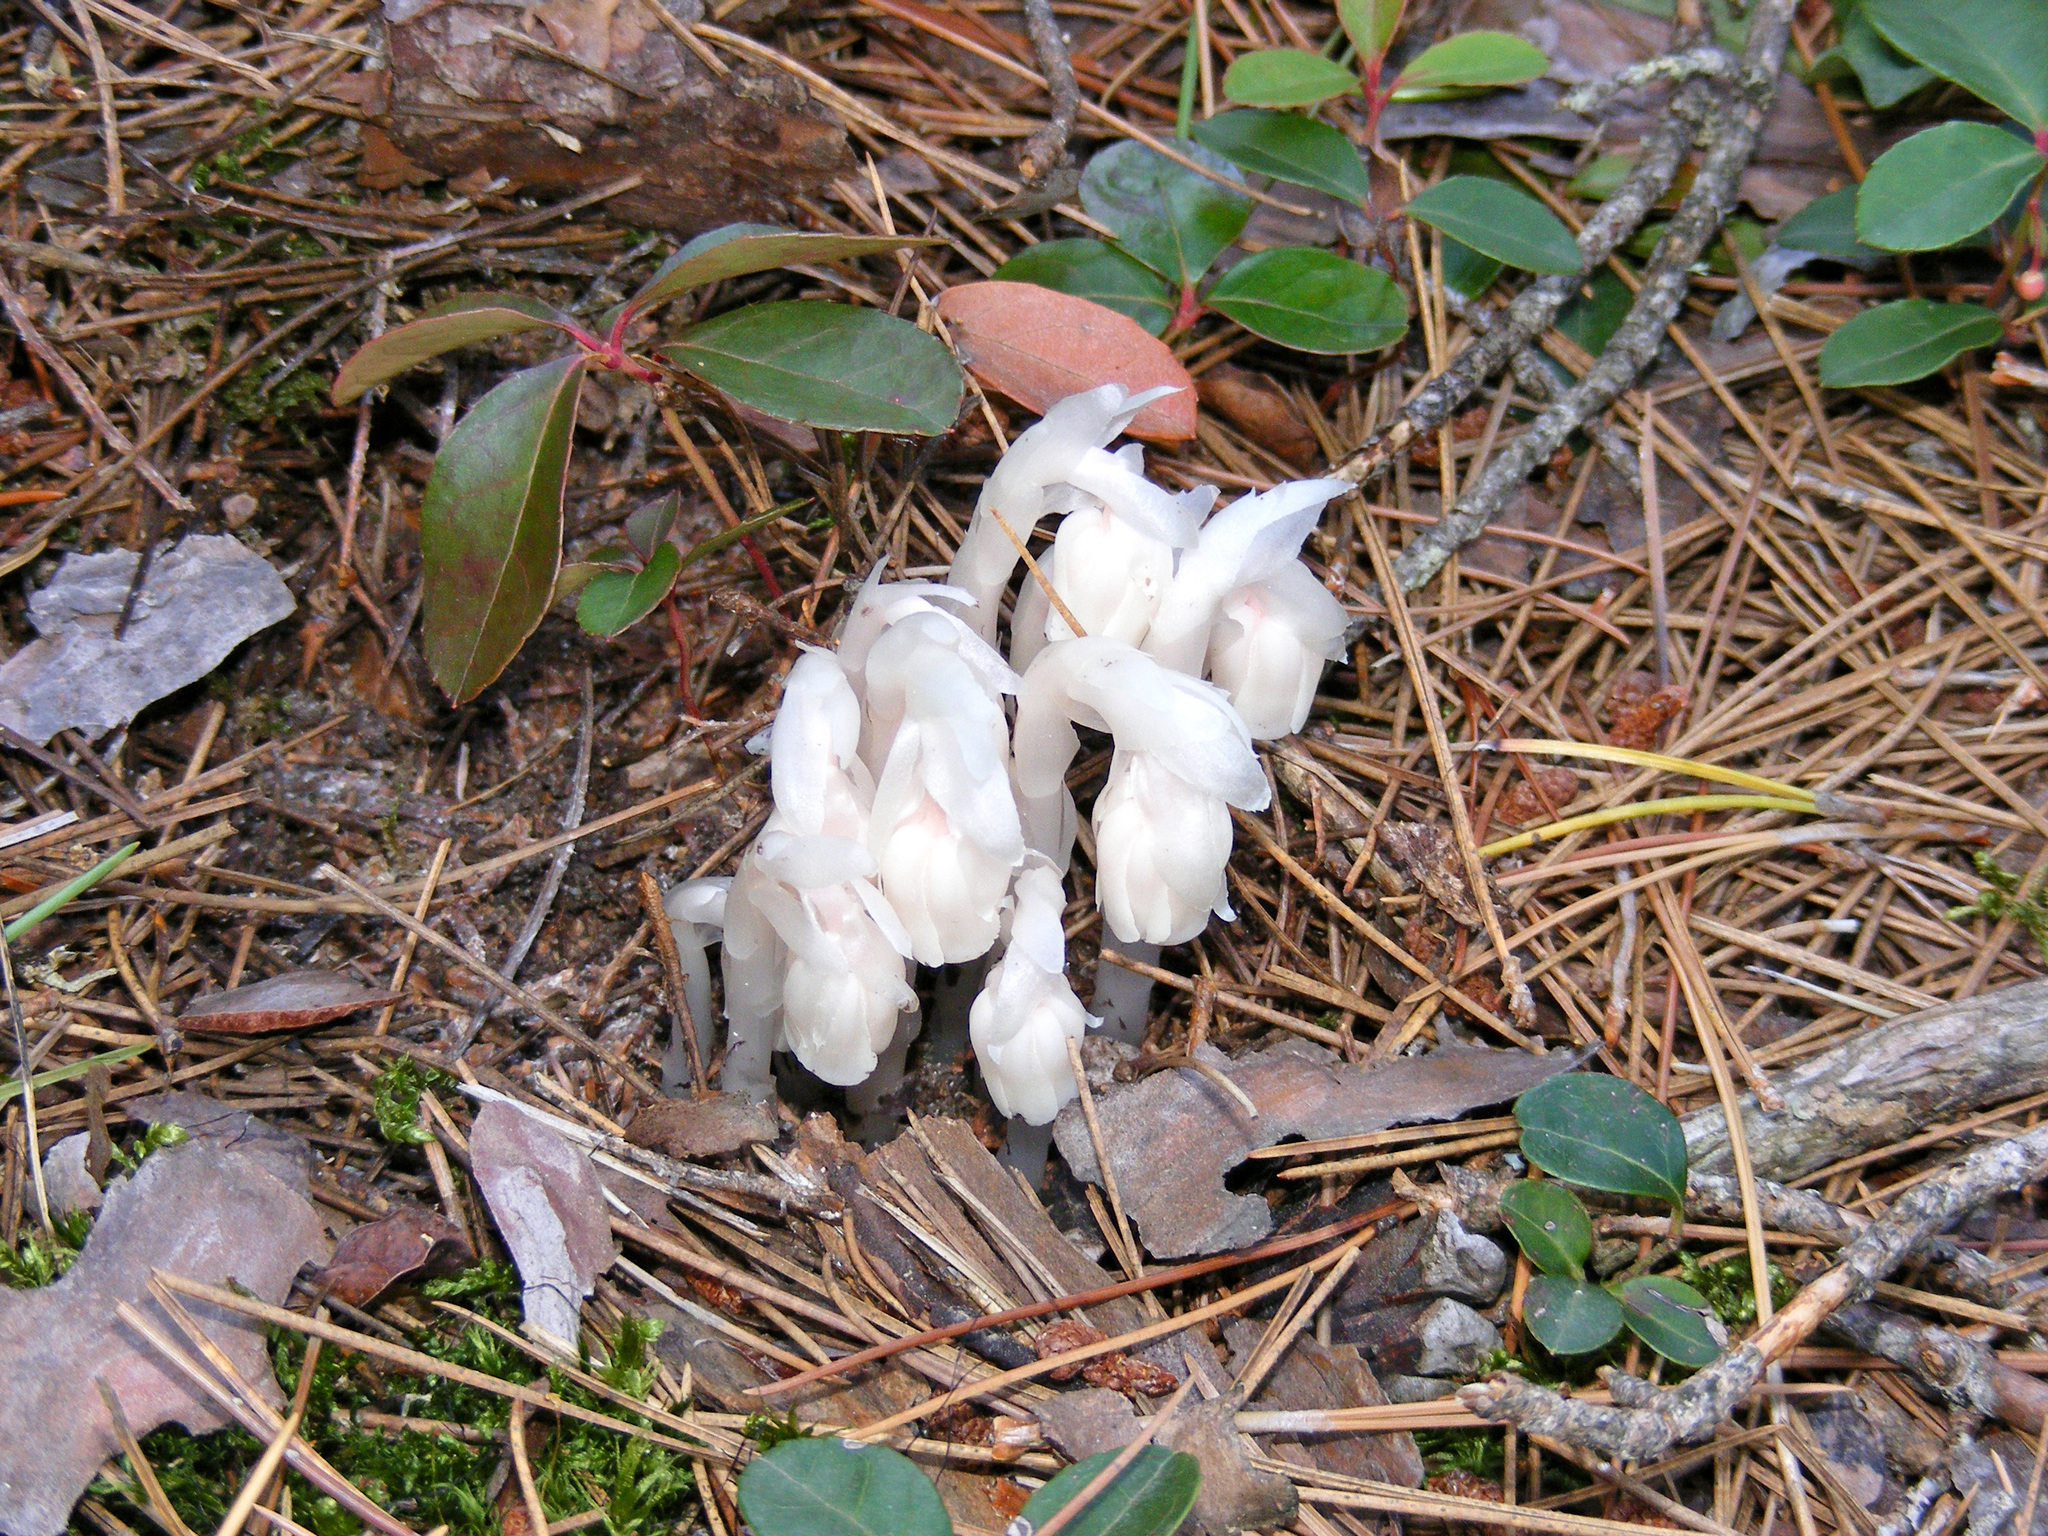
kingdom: Plantae
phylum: Tracheophyta
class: Magnoliopsida
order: Ericales
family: Ericaceae
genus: Monotropa
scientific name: Monotropa uniflora
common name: Convulsion root
